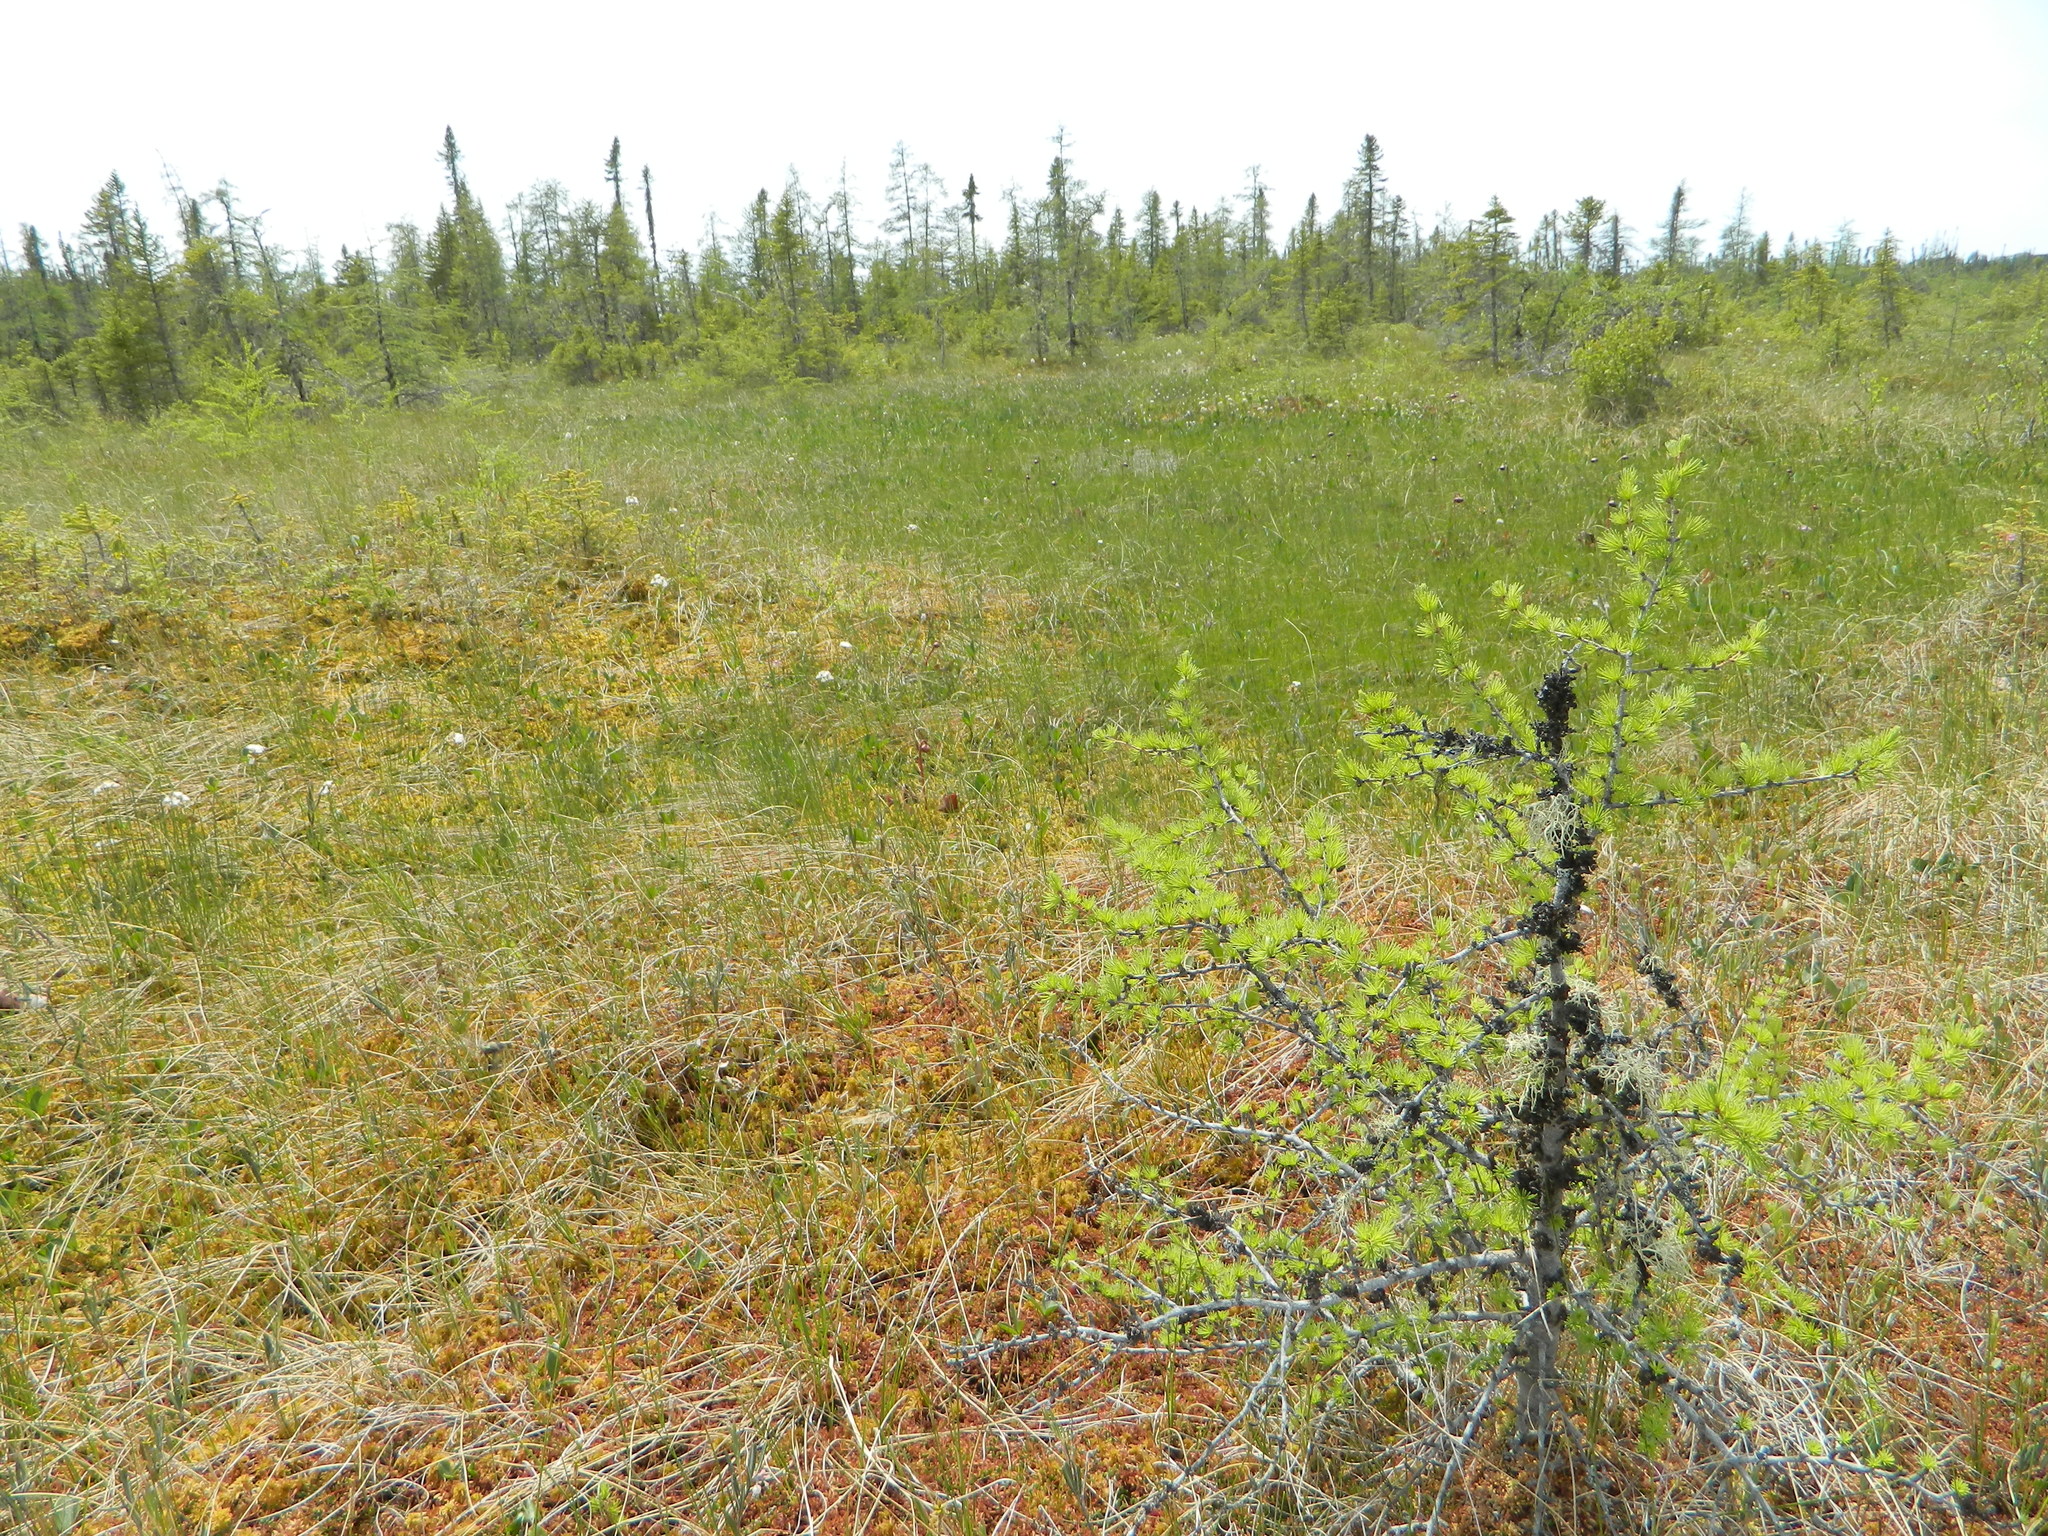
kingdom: Plantae
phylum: Tracheophyta
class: Pinopsida
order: Pinales
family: Pinaceae
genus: Larix
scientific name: Larix laricina
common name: American larch
